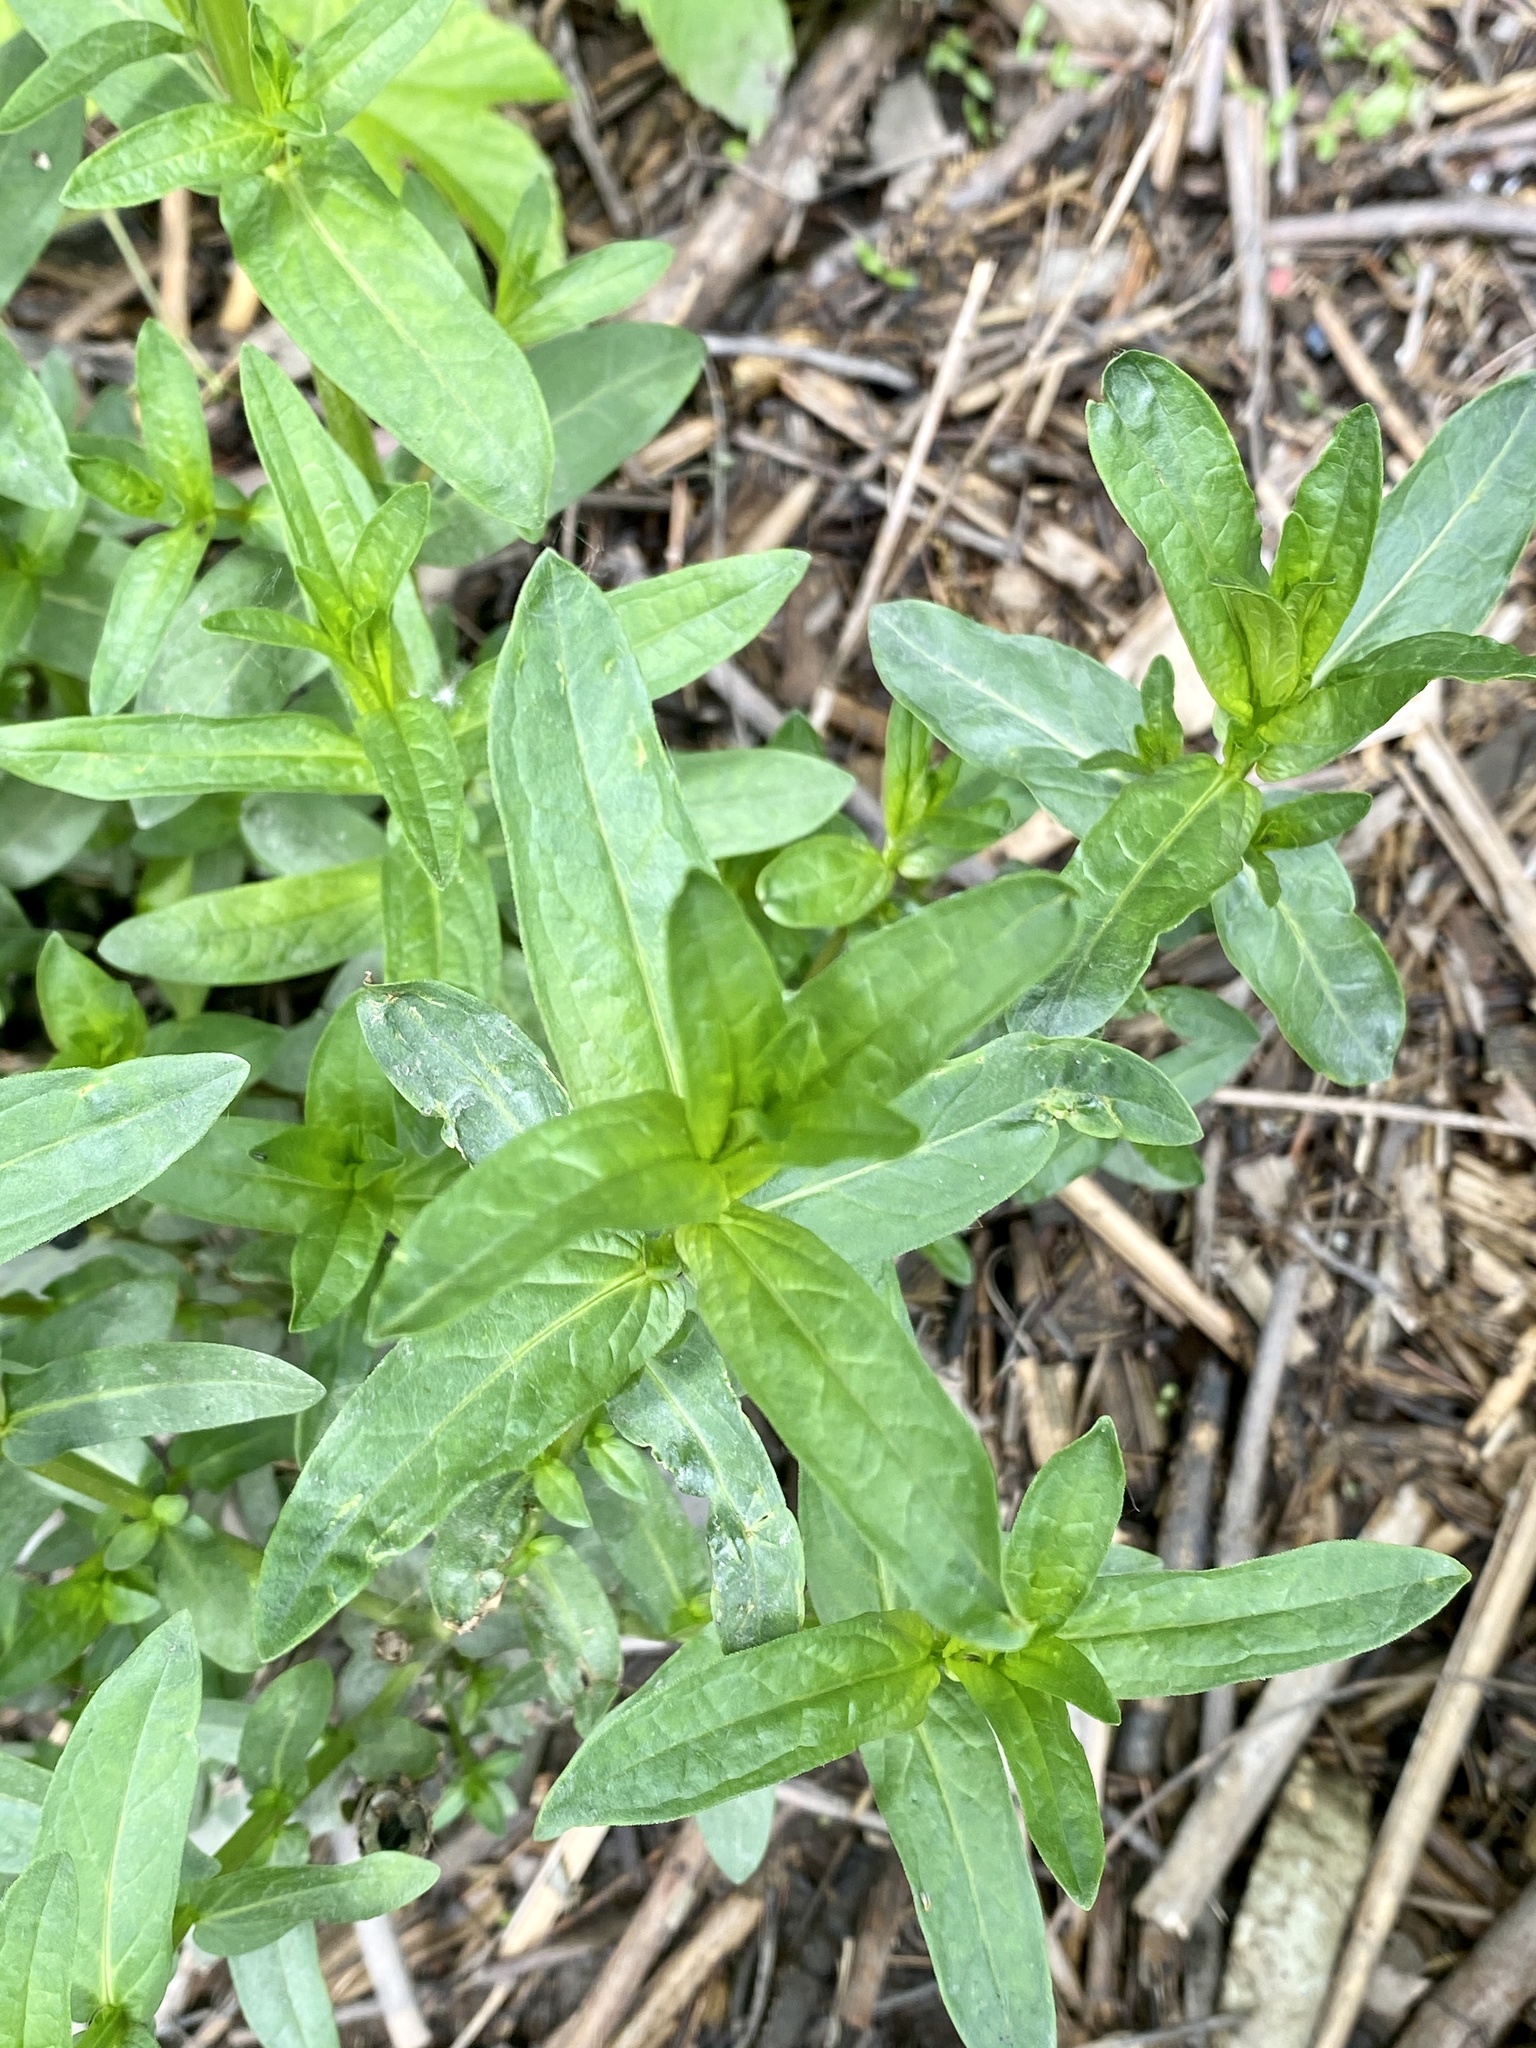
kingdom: Plantae
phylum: Tracheophyta
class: Magnoliopsida
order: Myrtales
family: Lythraceae
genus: Lythrum
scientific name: Lythrum salicaria
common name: Purple loosestrife
